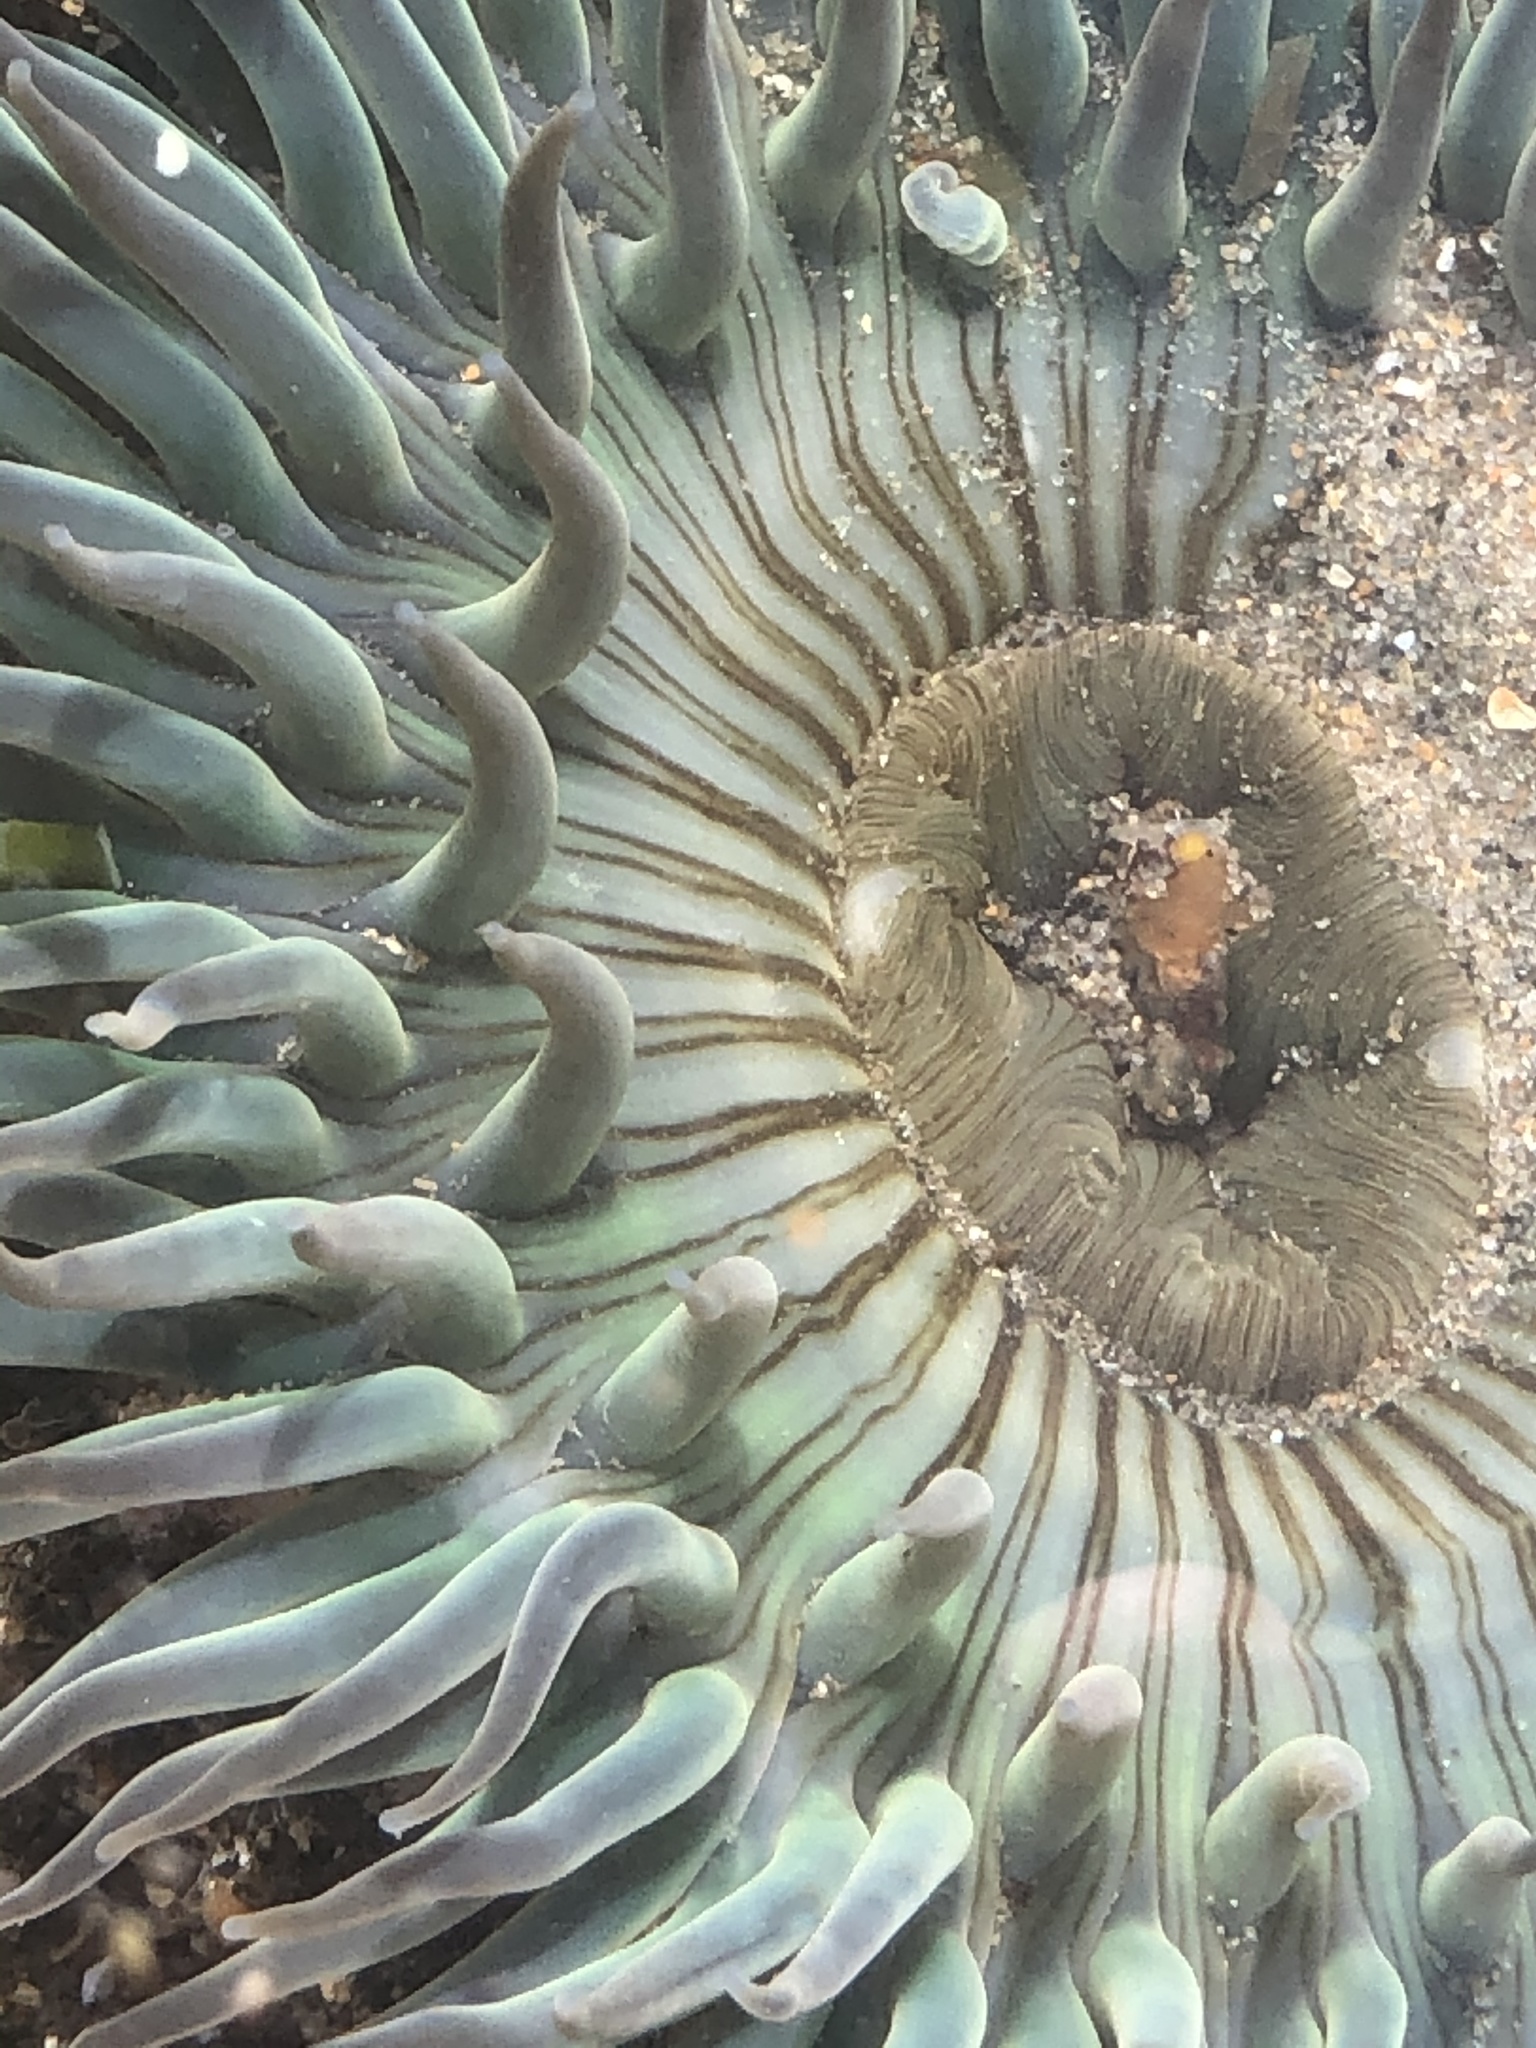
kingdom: Animalia
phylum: Cnidaria
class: Anthozoa
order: Actiniaria
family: Actiniidae
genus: Anthopleura
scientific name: Anthopleura sola
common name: Sun anemone
